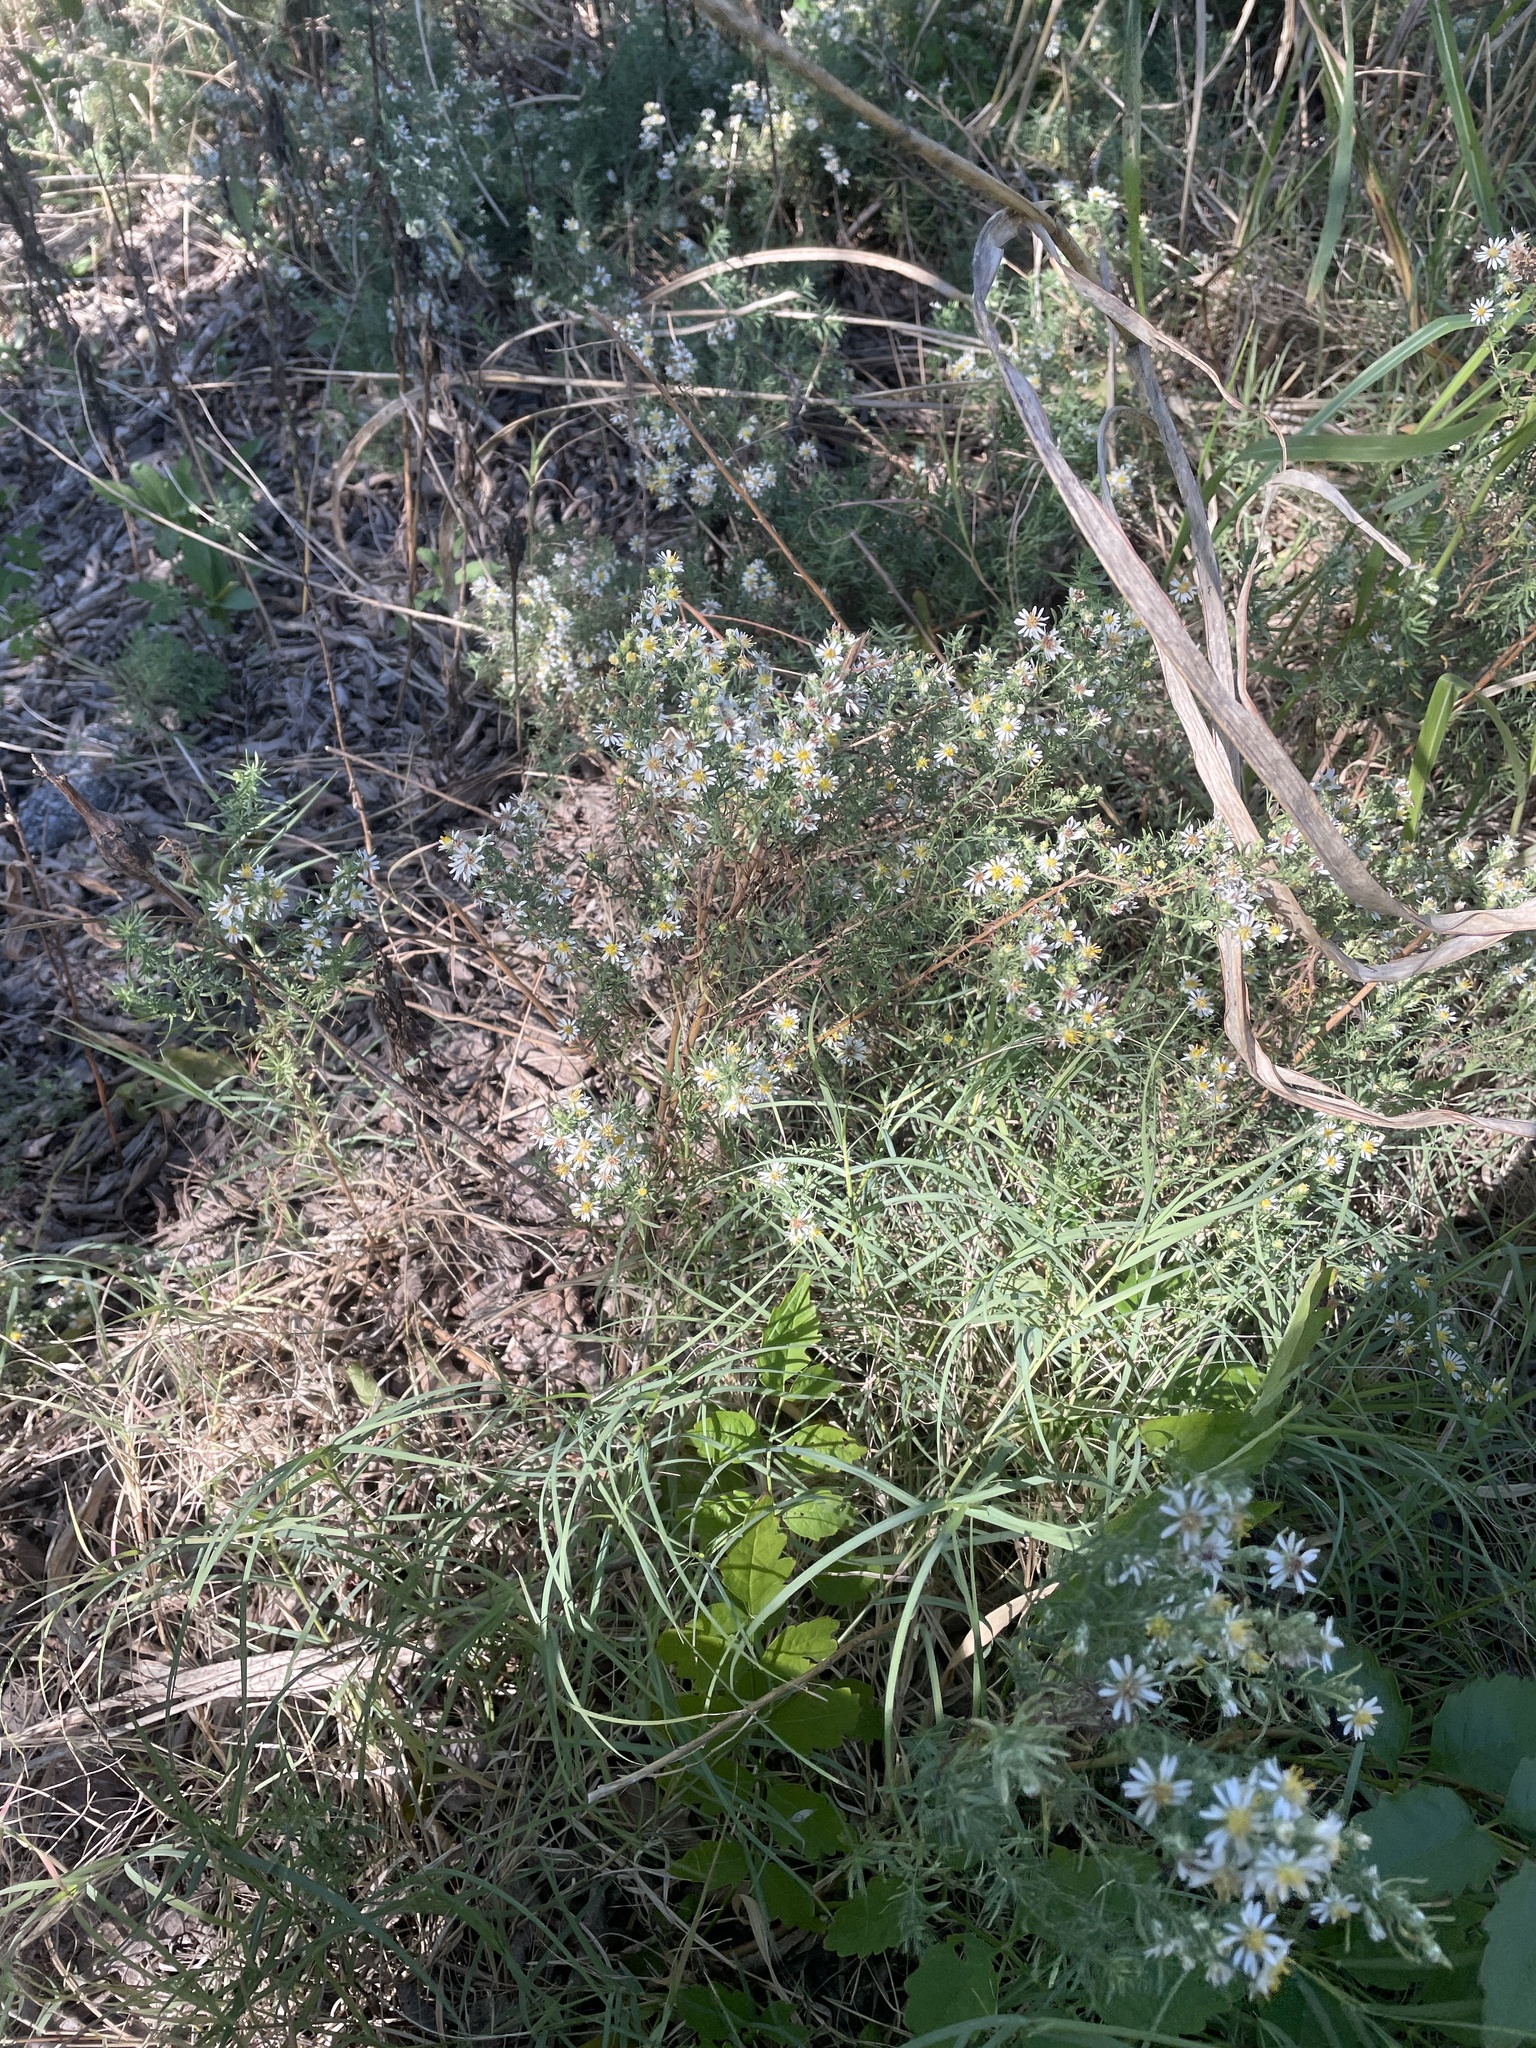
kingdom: Plantae
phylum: Tracheophyta
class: Magnoliopsida
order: Asterales
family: Asteraceae
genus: Symphyotrichum
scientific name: Symphyotrichum ericoides
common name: Heath aster
